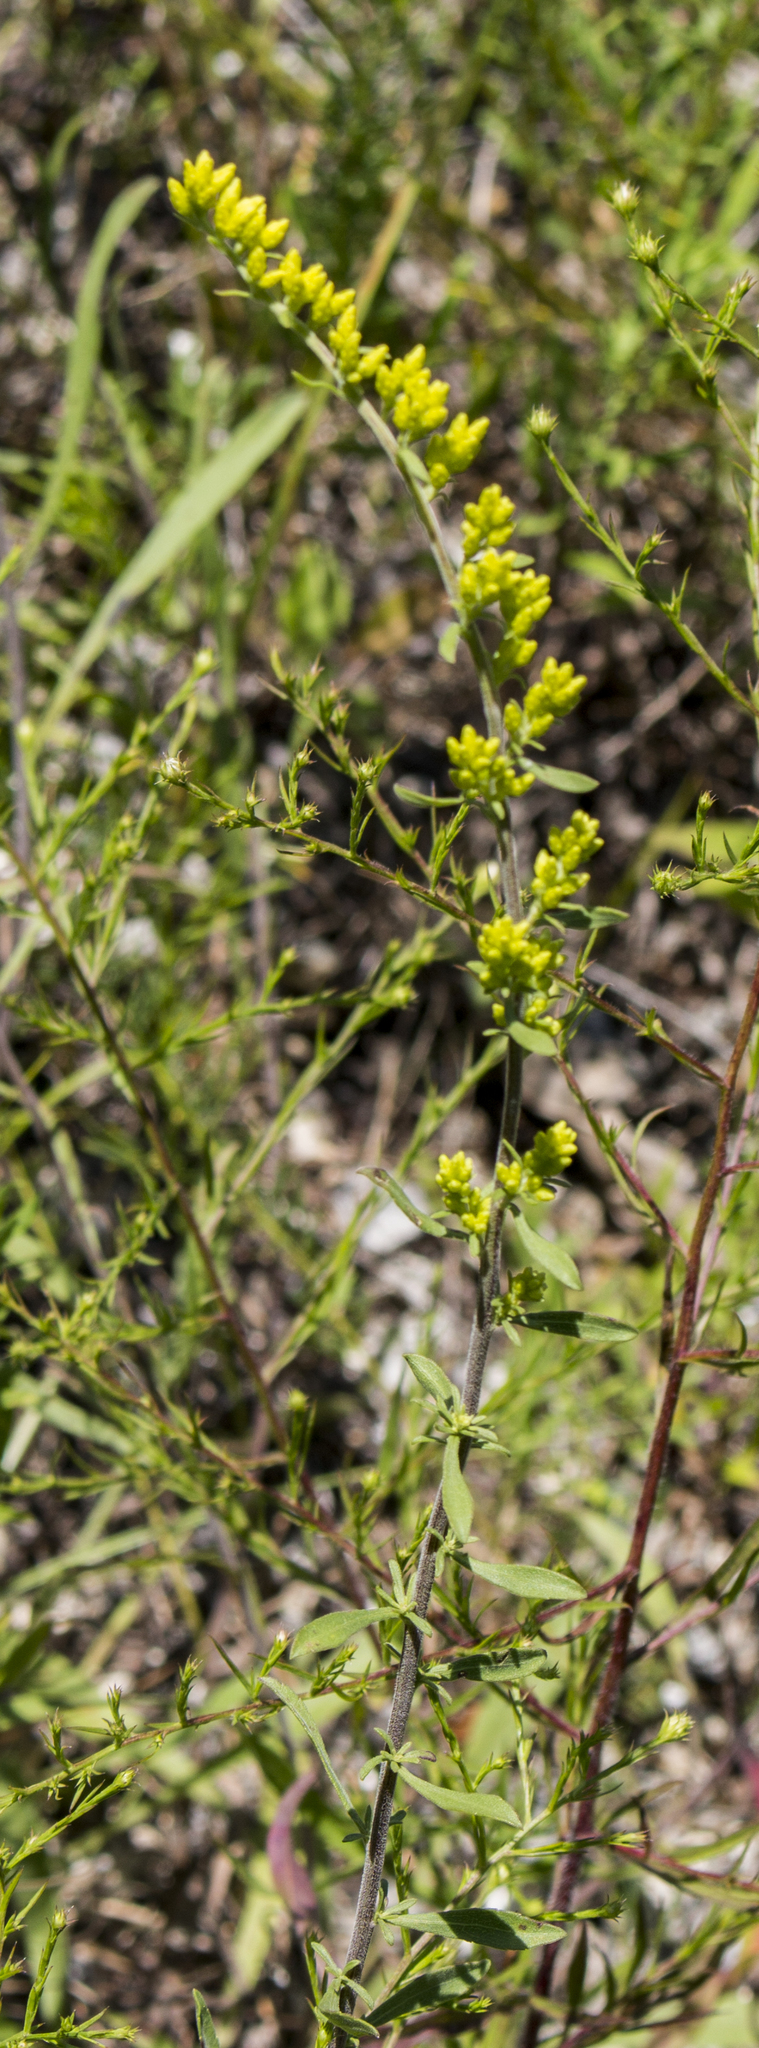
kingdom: Plantae
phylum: Tracheophyta
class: Magnoliopsida
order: Asterales
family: Asteraceae
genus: Solidago
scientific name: Solidago nemoralis
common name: Grey goldenrod
